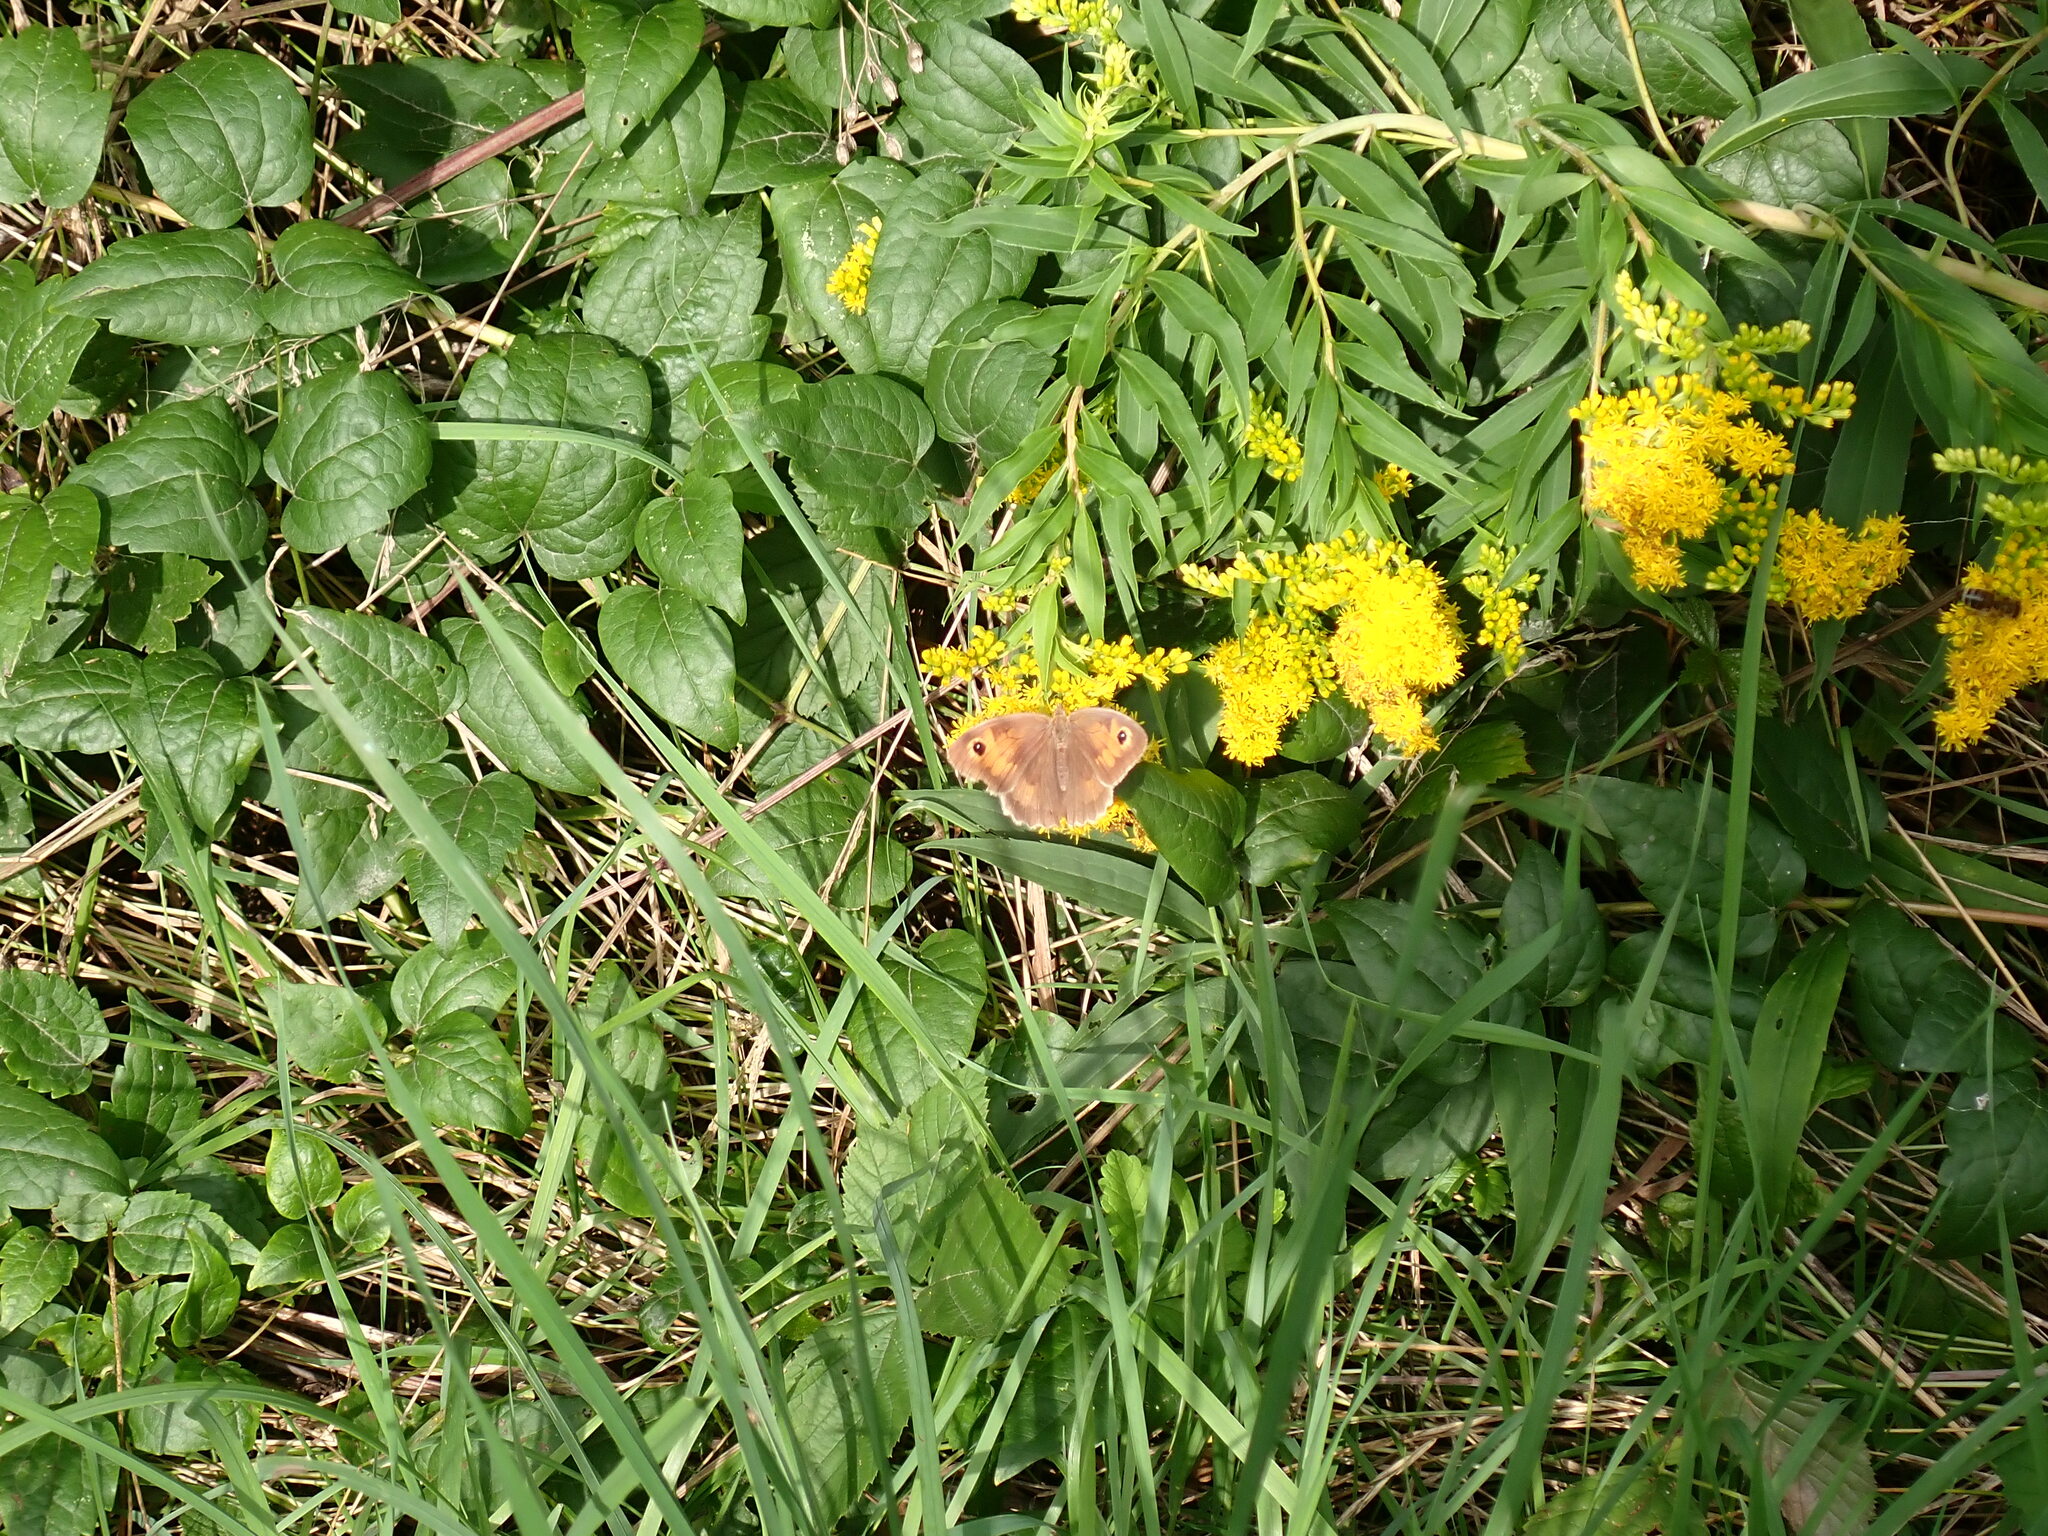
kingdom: Animalia
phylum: Arthropoda
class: Insecta
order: Lepidoptera
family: Nymphalidae
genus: Maniola
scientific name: Maniola jurtina
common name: Meadow brown
